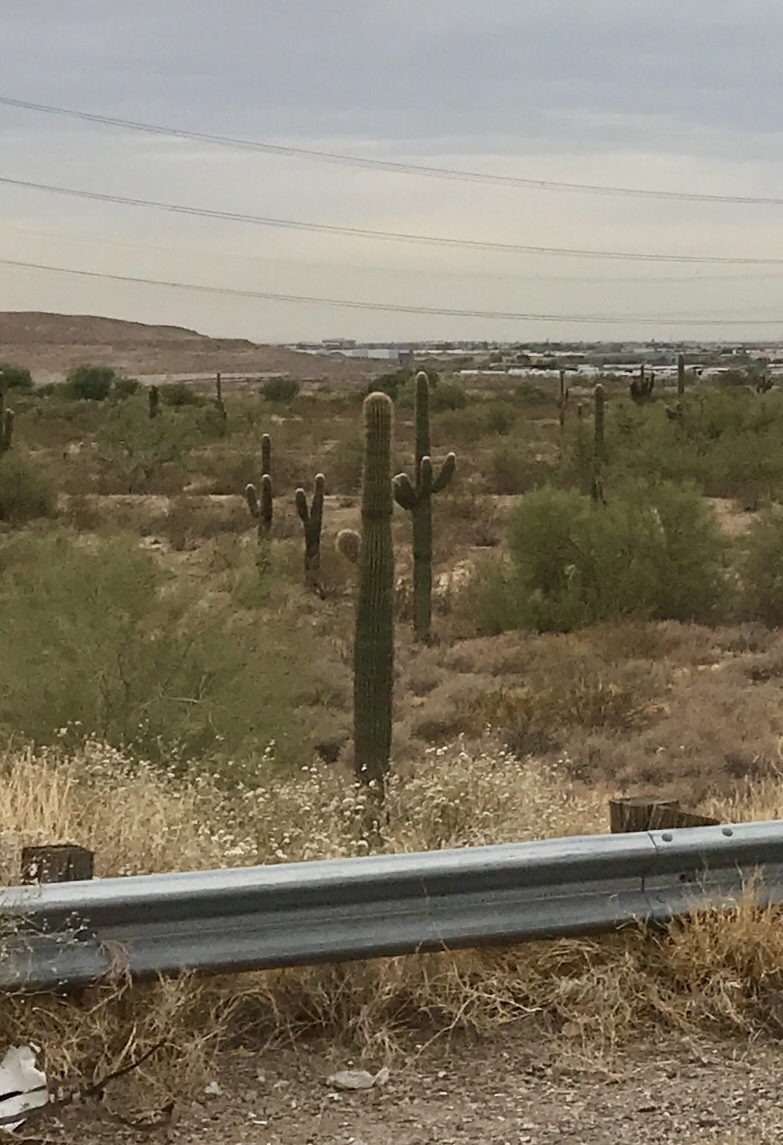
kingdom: Plantae
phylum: Tracheophyta
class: Magnoliopsida
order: Caryophyllales
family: Cactaceae
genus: Carnegiea
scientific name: Carnegiea gigantea
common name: Saguaro
